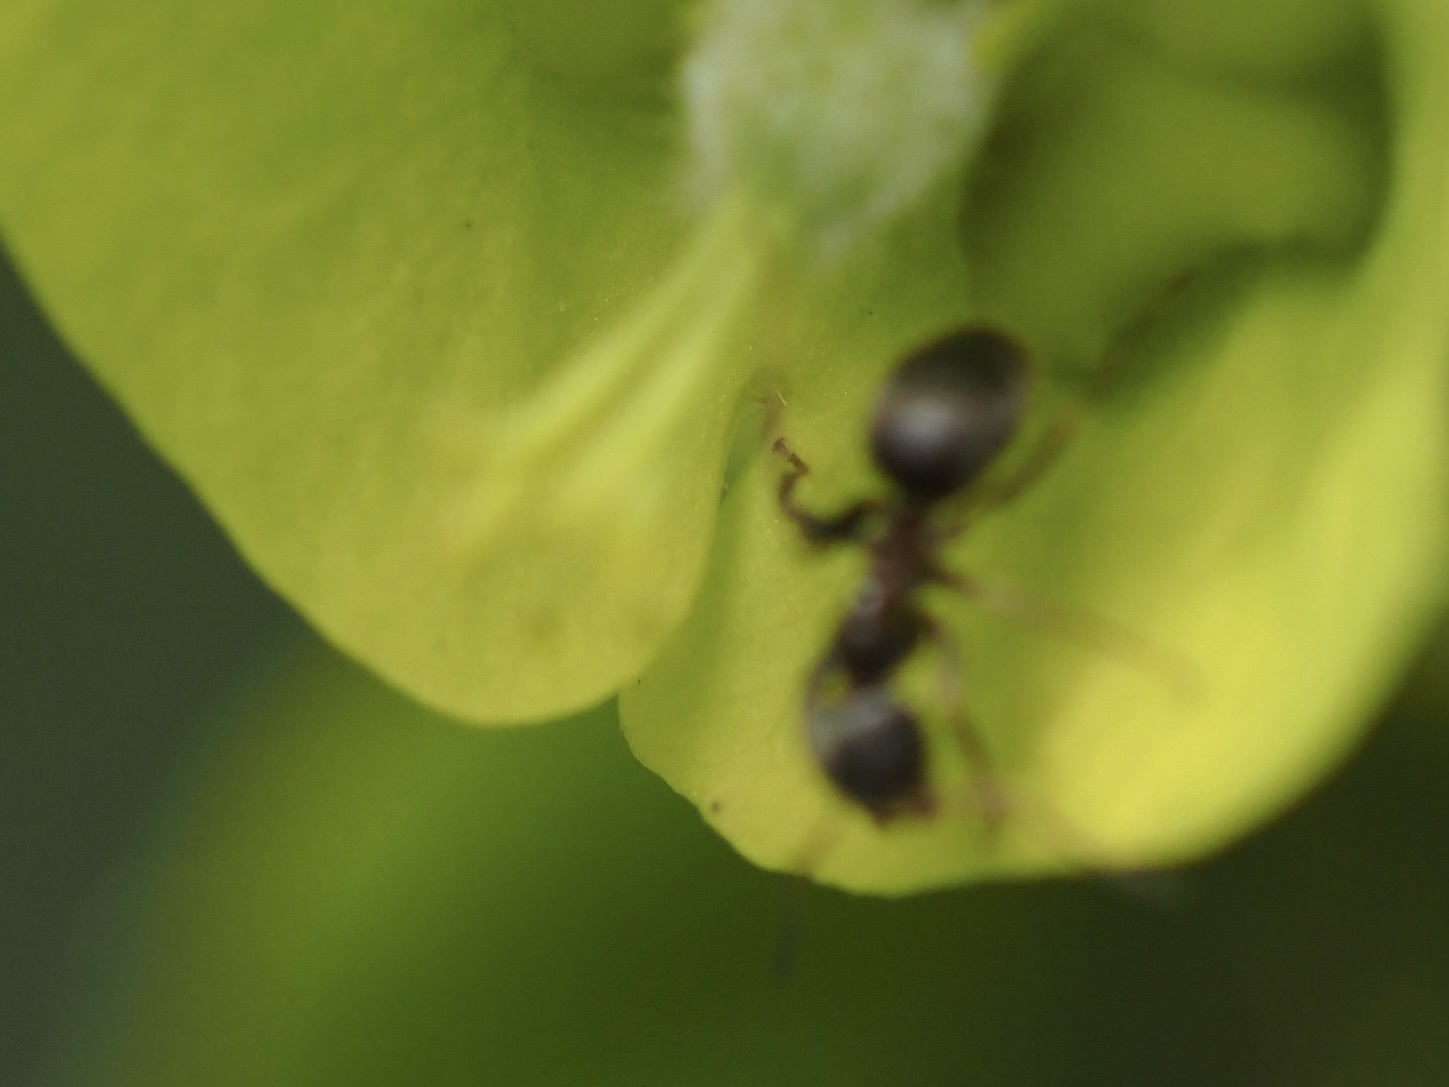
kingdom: Animalia
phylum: Arthropoda
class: Insecta
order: Hymenoptera
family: Formicidae
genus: Lasius
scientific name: Lasius niger
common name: Small black ant
